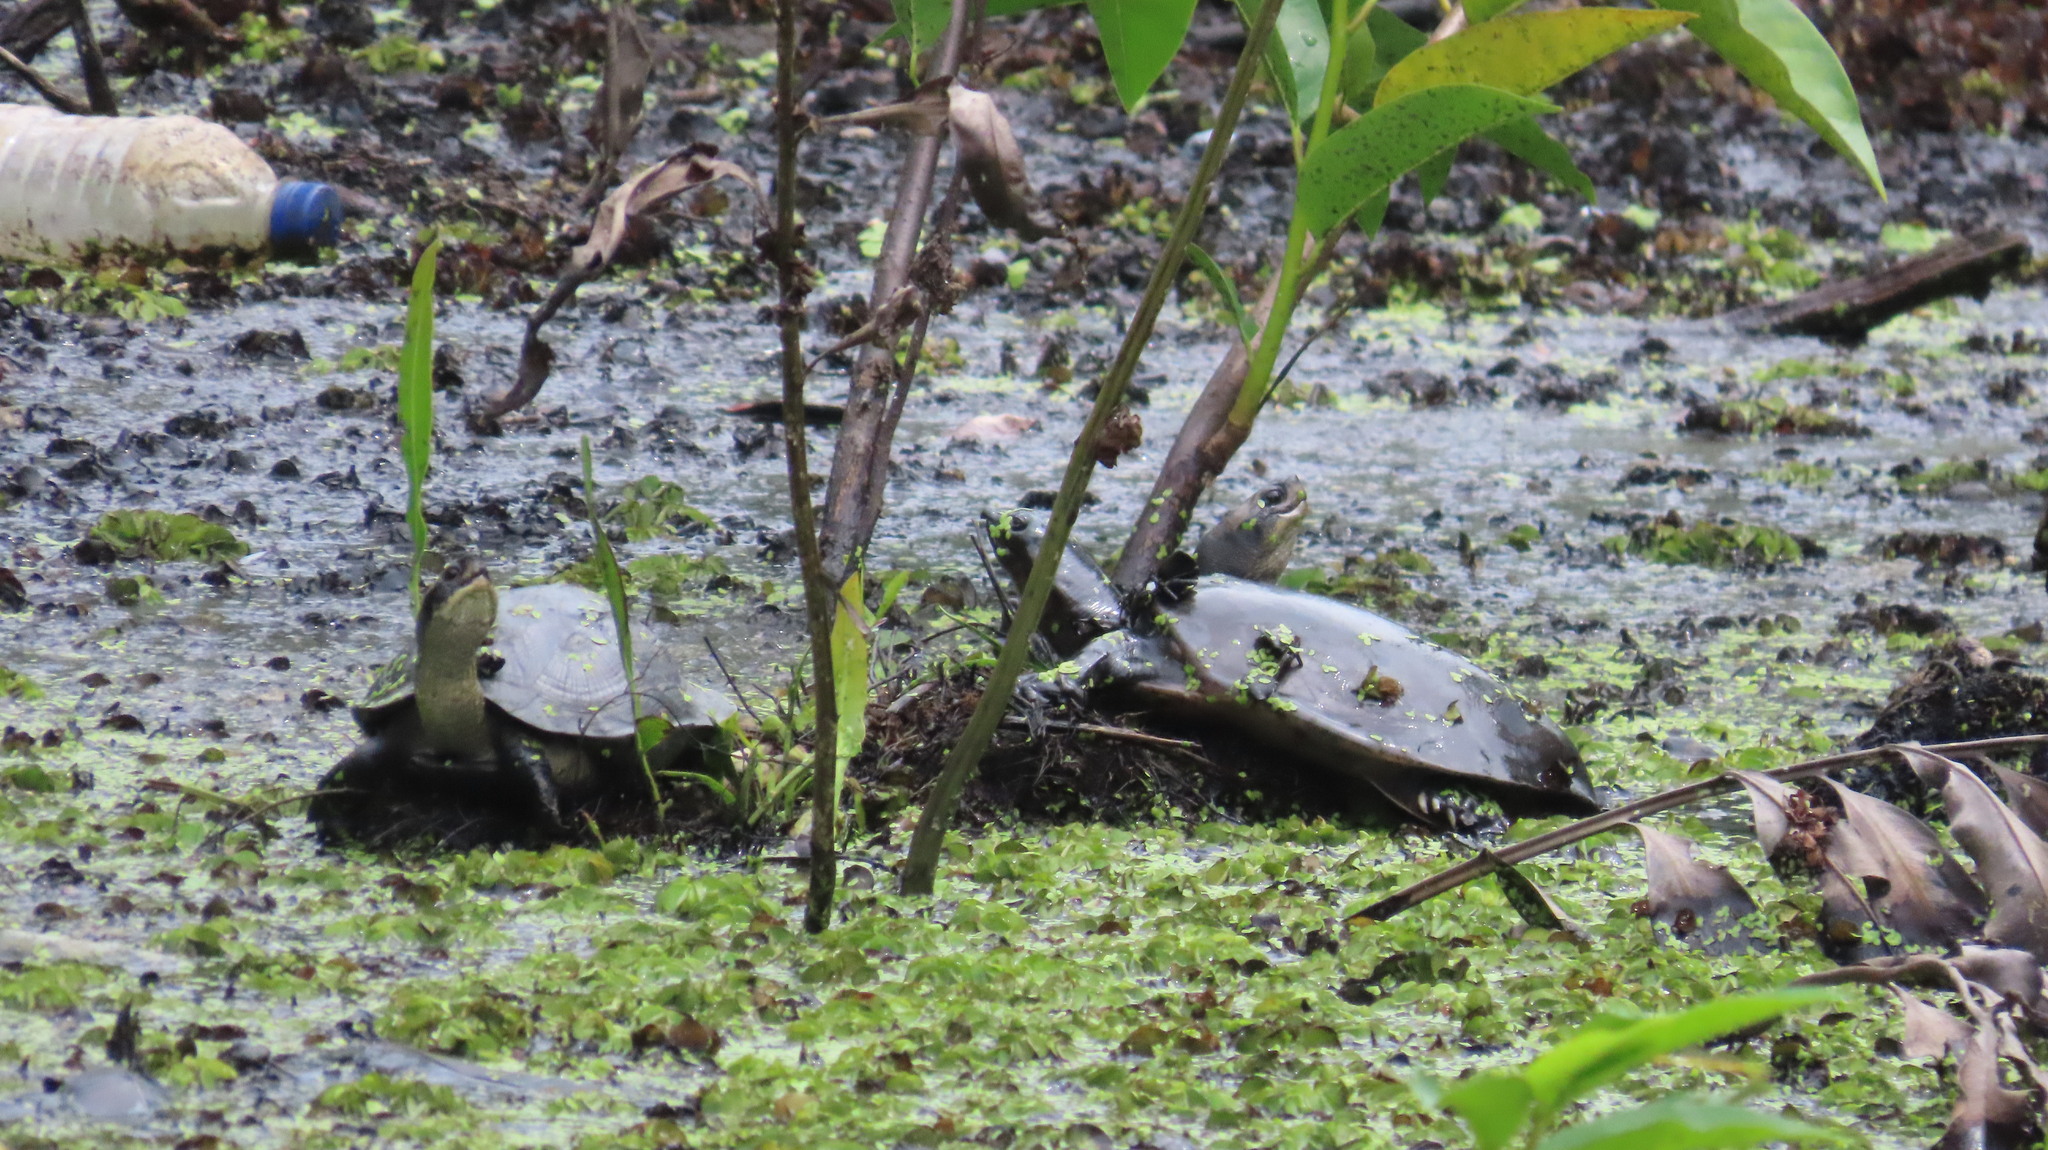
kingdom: Animalia
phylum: Chordata
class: Testudines
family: Geoemydidae
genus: Melanochelys
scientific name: Melanochelys trijuga
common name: Indian black turtle
